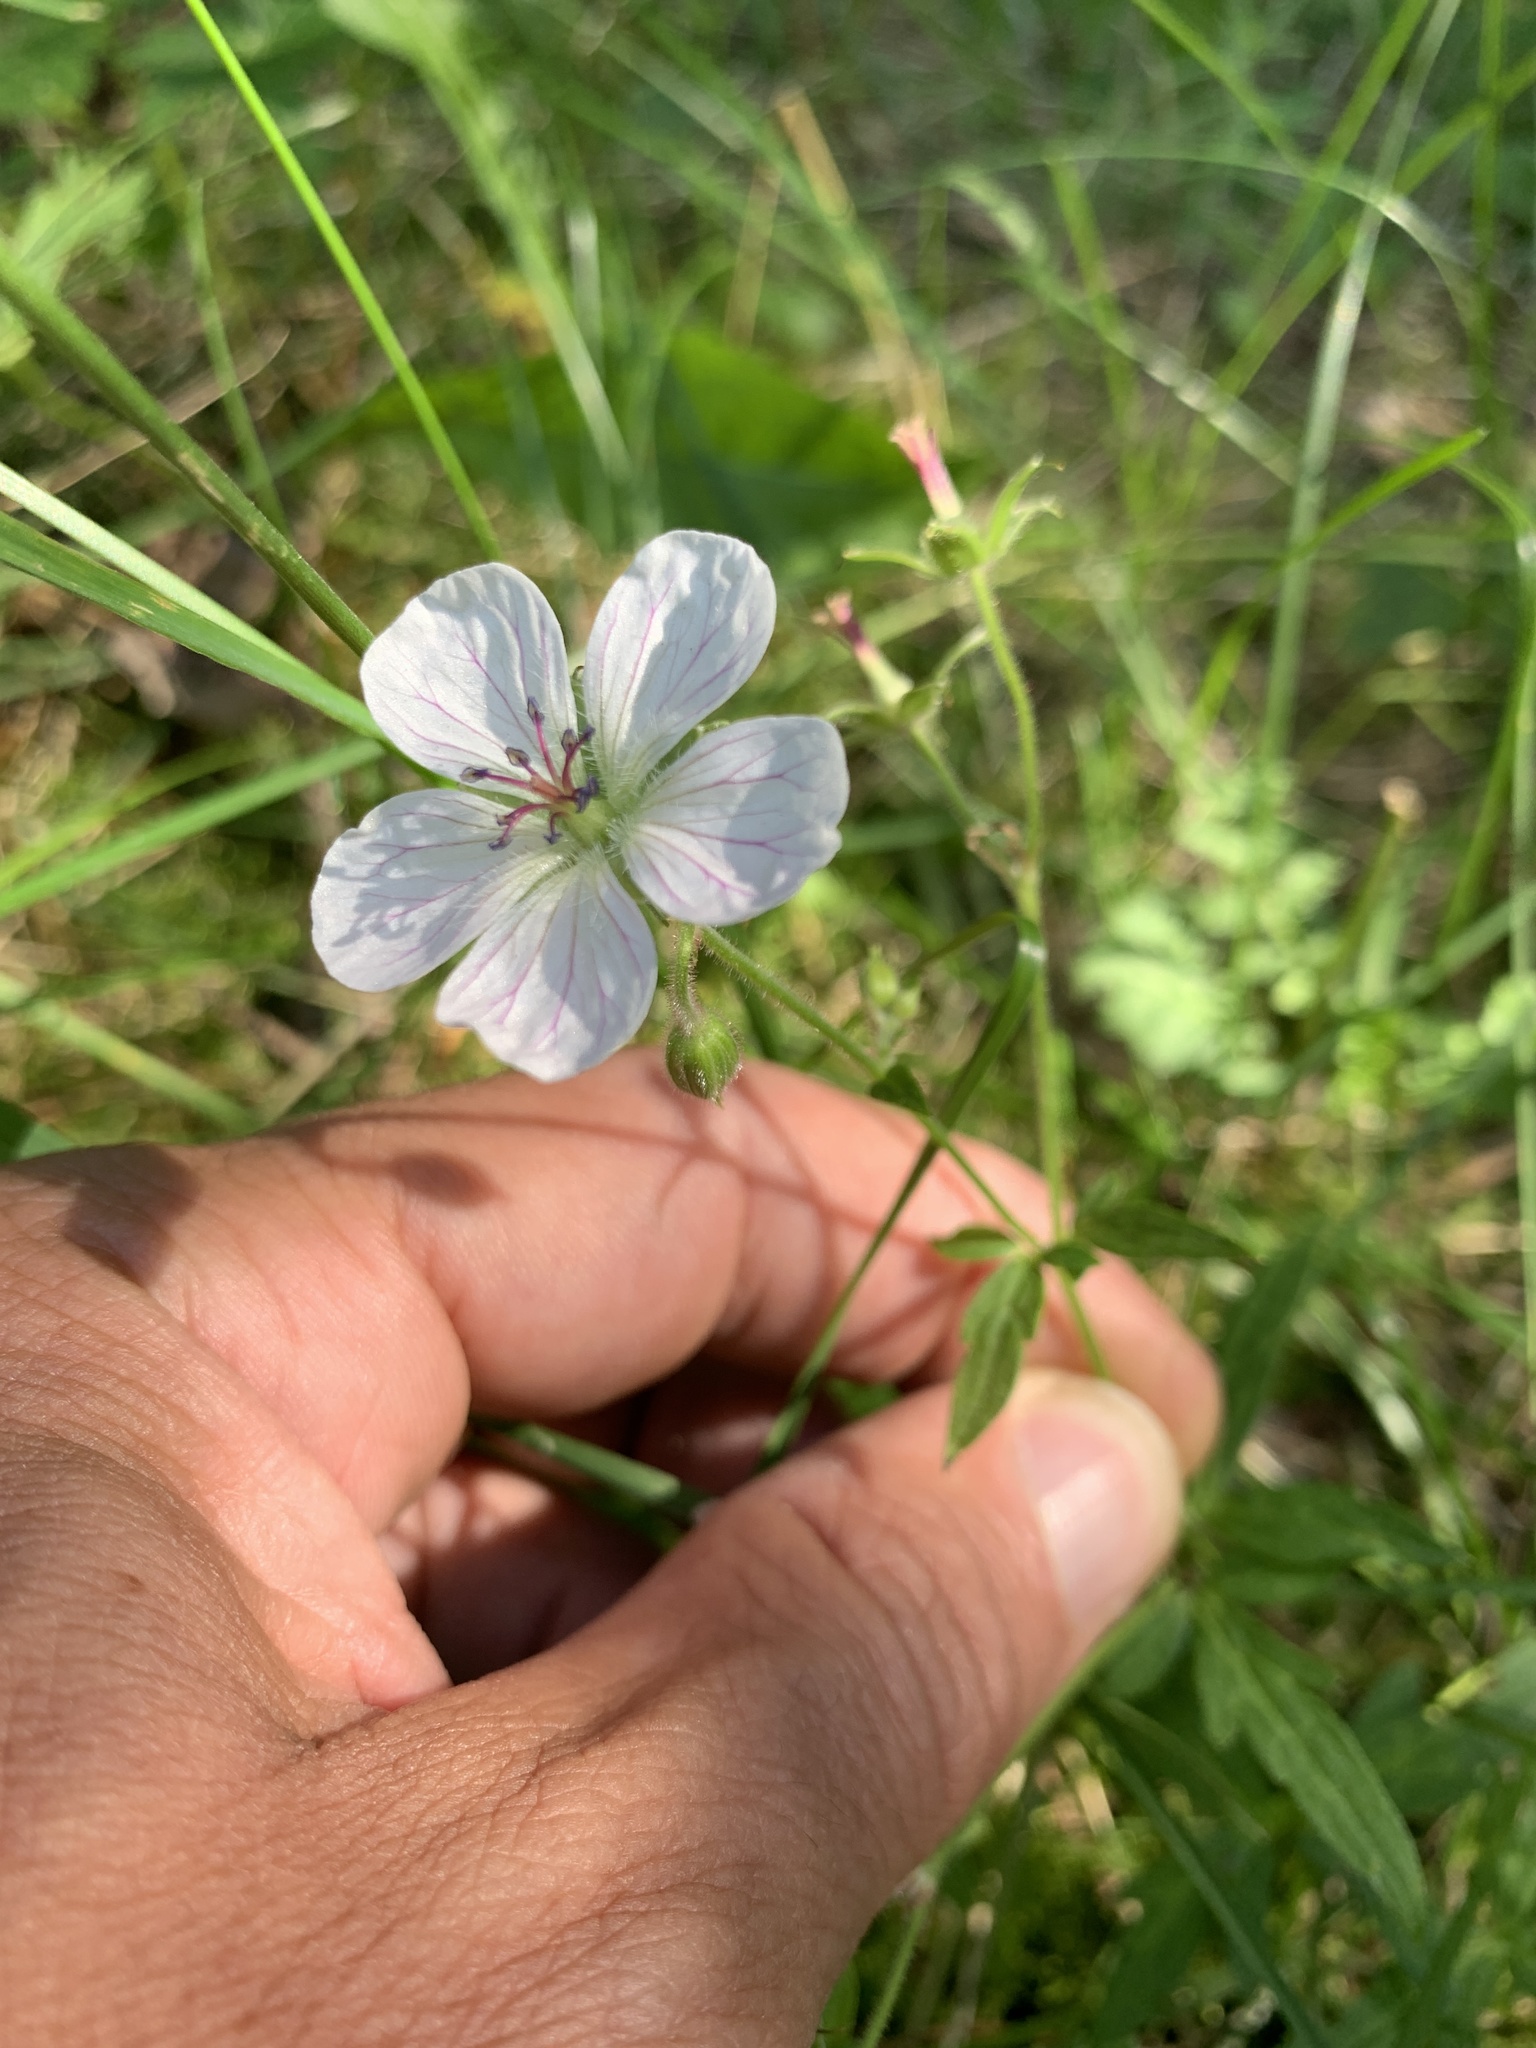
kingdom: Plantae
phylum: Tracheophyta
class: Magnoliopsida
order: Geraniales
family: Geraniaceae
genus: Geranium
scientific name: Geranium richardsonii
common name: Richardson's crane's-bill
